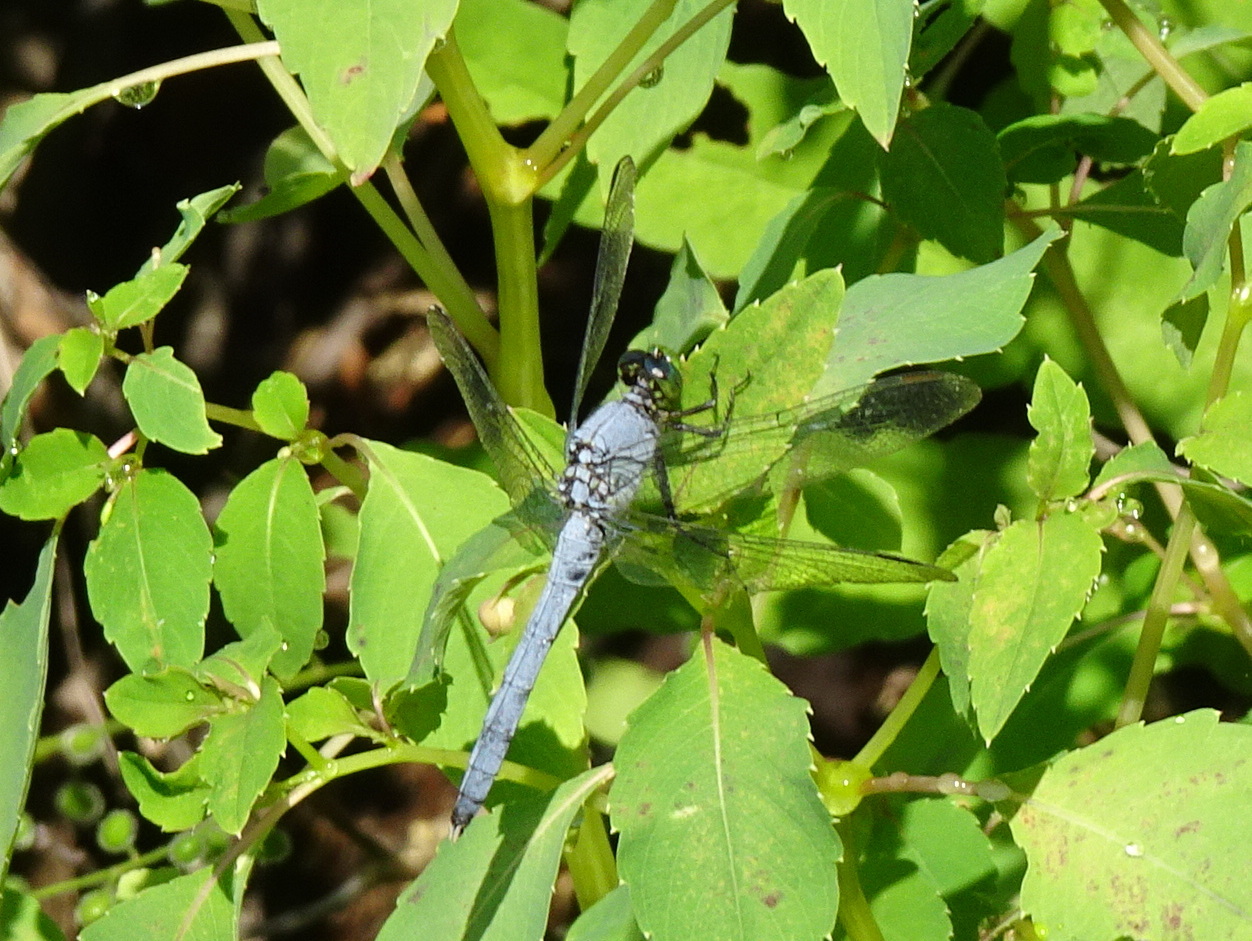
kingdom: Animalia
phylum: Arthropoda
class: Insecta
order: Odonata
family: Libellulidae
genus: Erythemis
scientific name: Erythemis simplicicollis
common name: Eastern pondhawk
